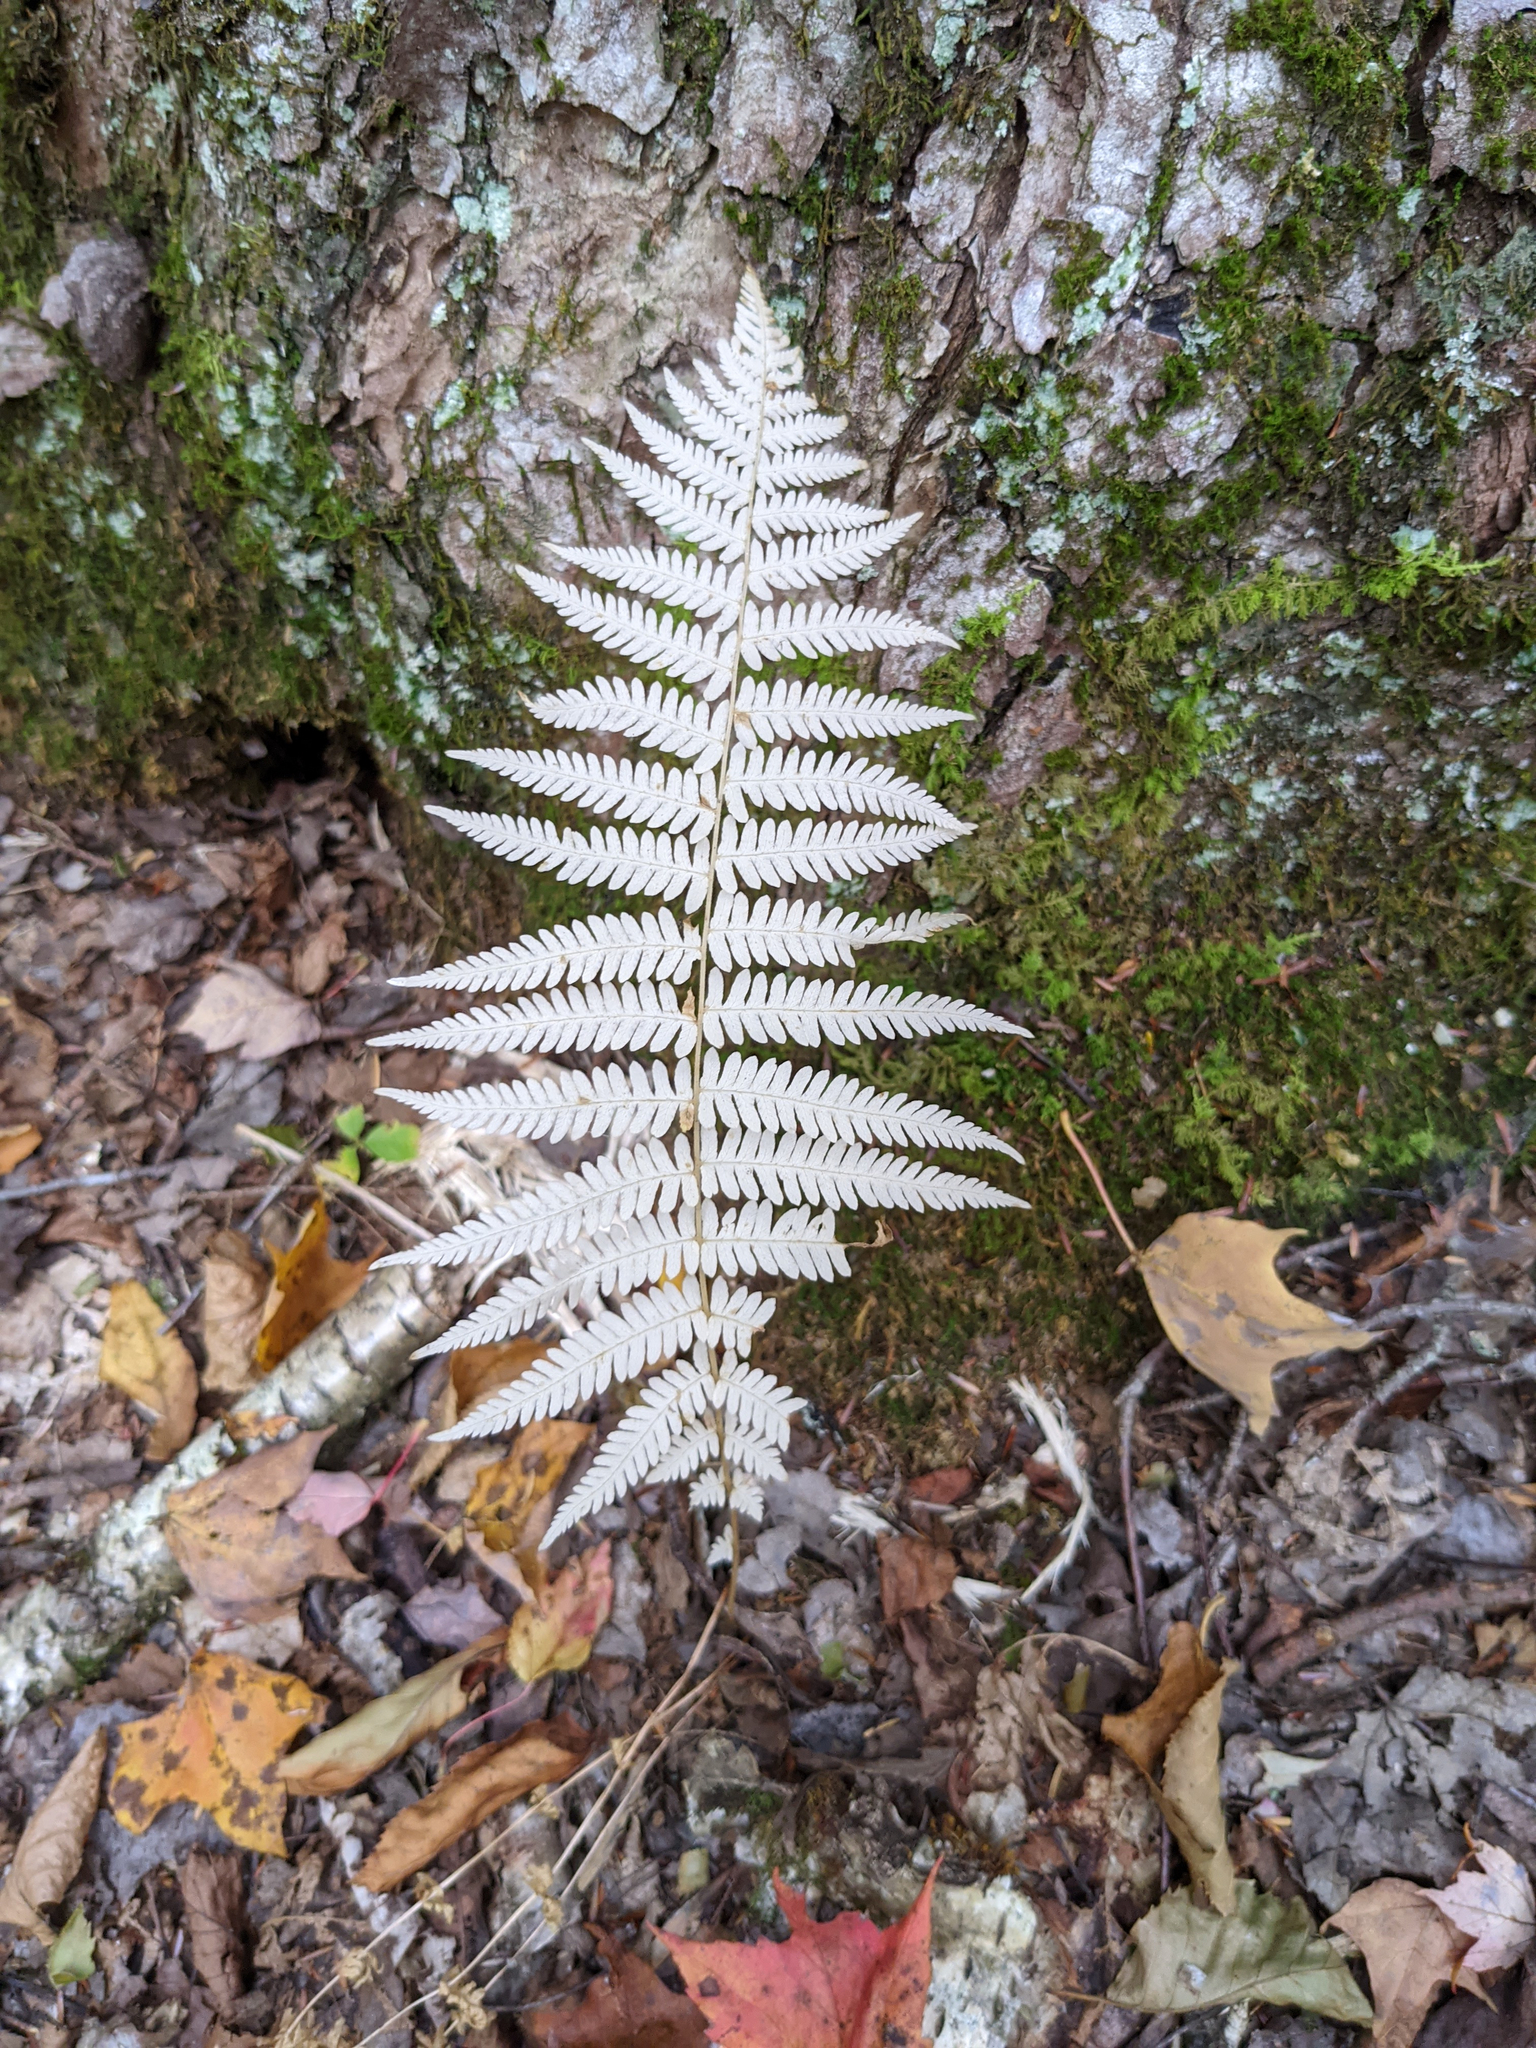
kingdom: Plantae
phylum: Tracheophyta
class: Polypodiopsida
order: Polypodiales
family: Thelypteridaceae
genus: Amauropelta
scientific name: Amauropelta noveboracensis
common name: New york fern
